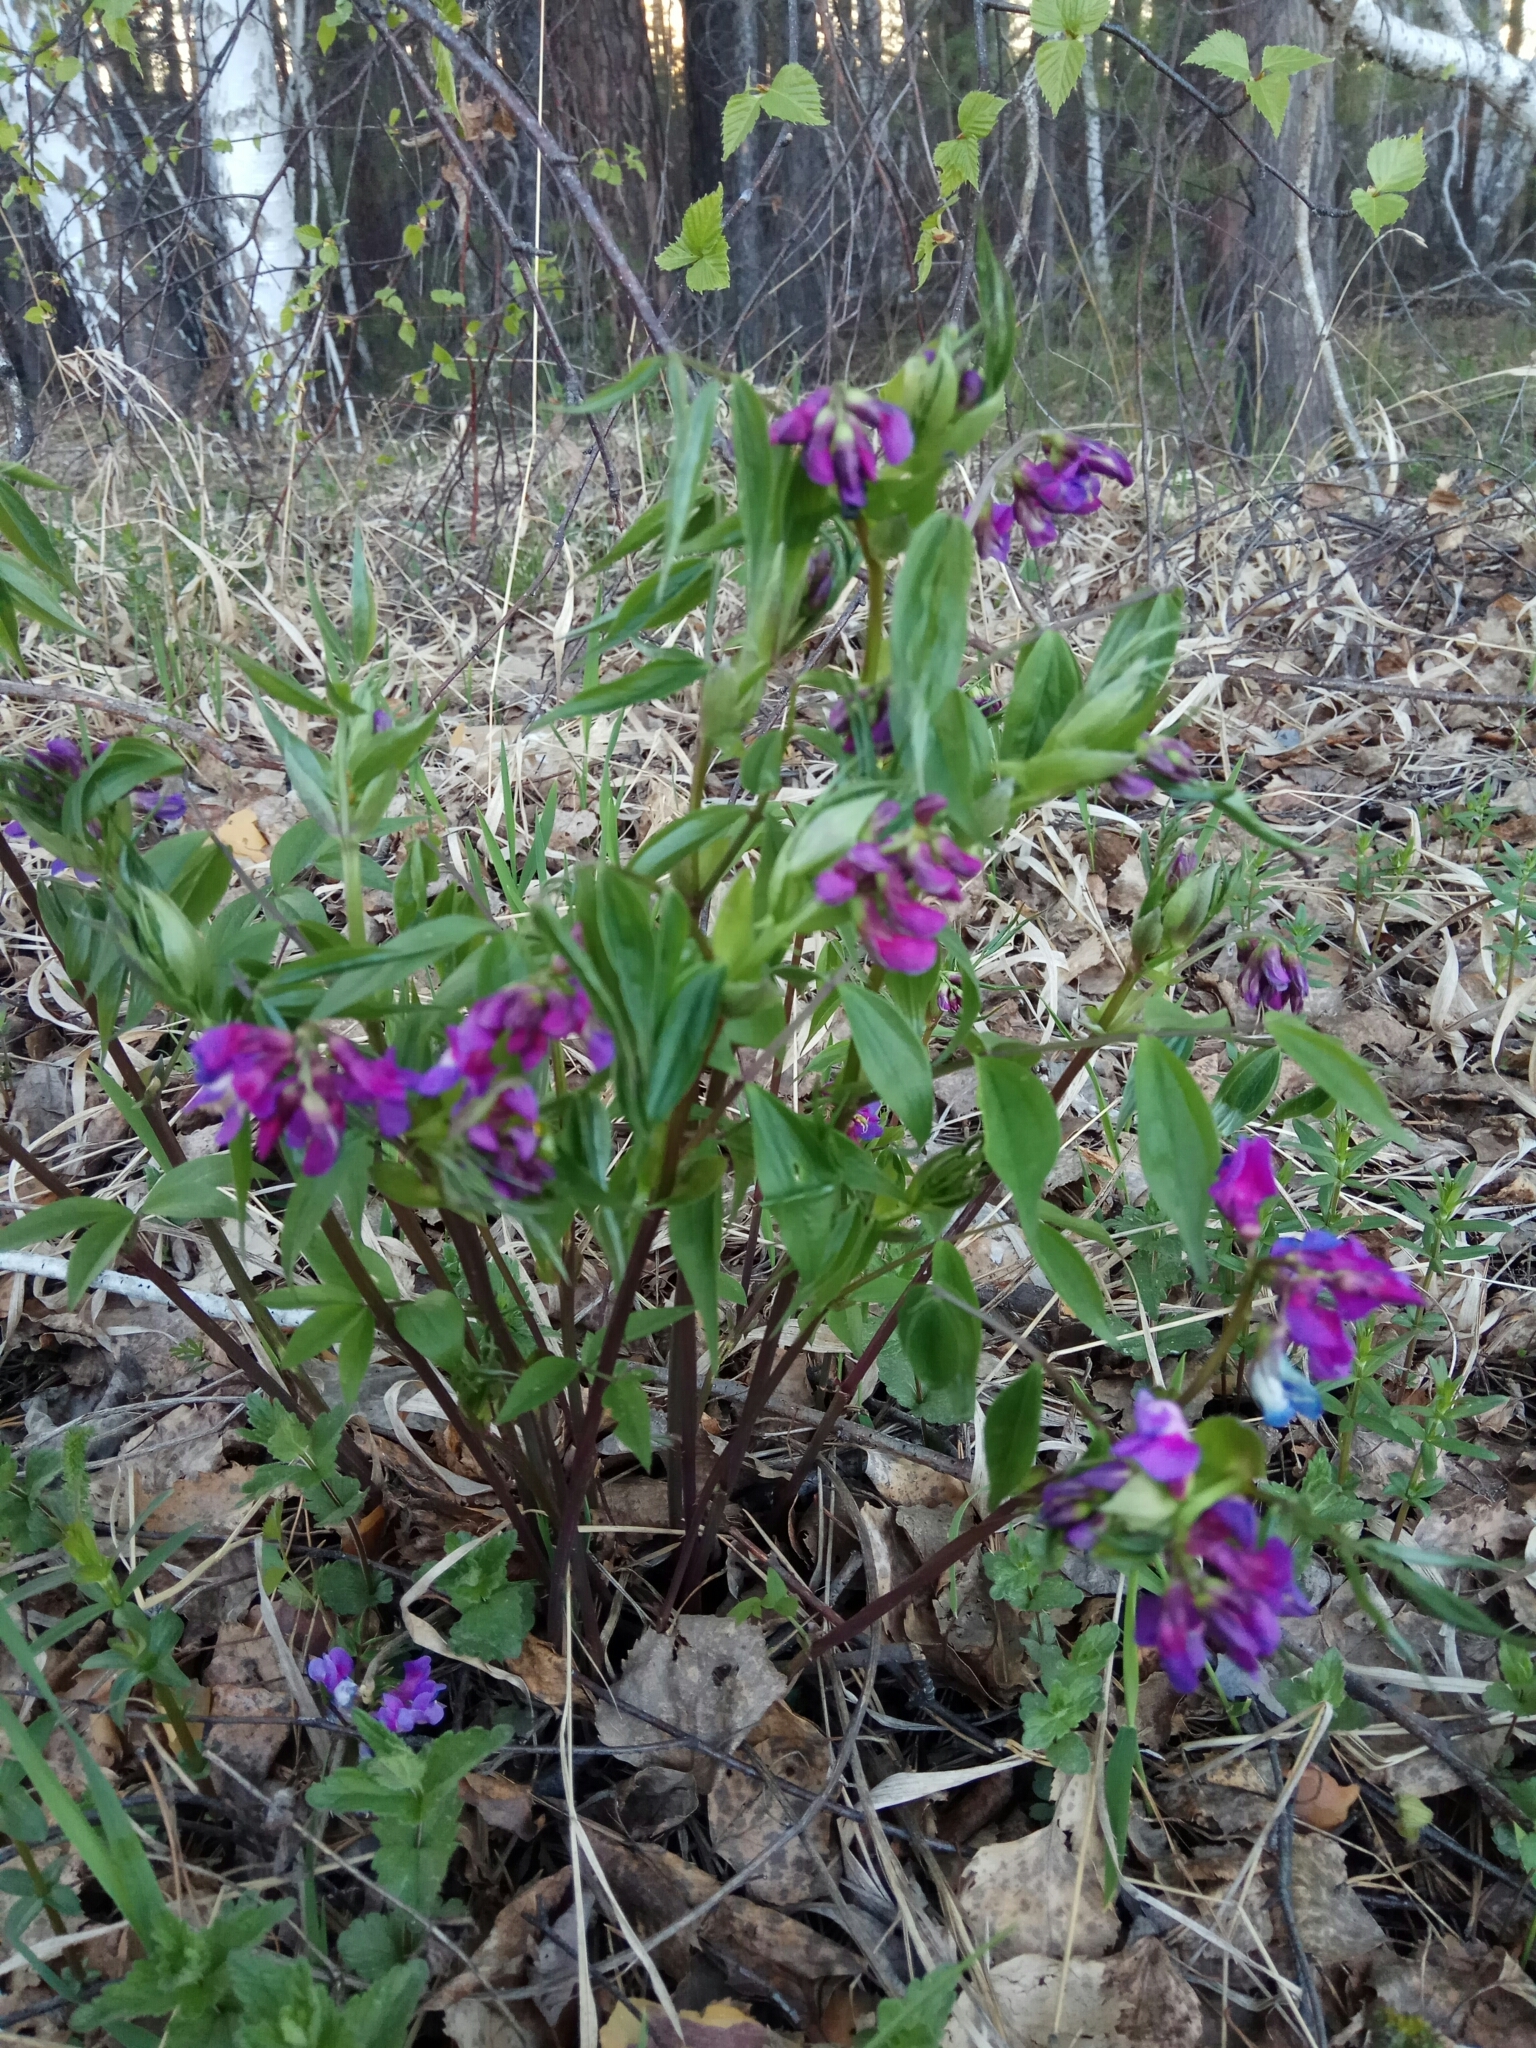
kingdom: Plantae
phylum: Tracheophyta
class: Magnoliopsida
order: Fabales
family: Fabaceae
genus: Lathyrus
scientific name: Lathyrus vernus
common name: Spring pea
